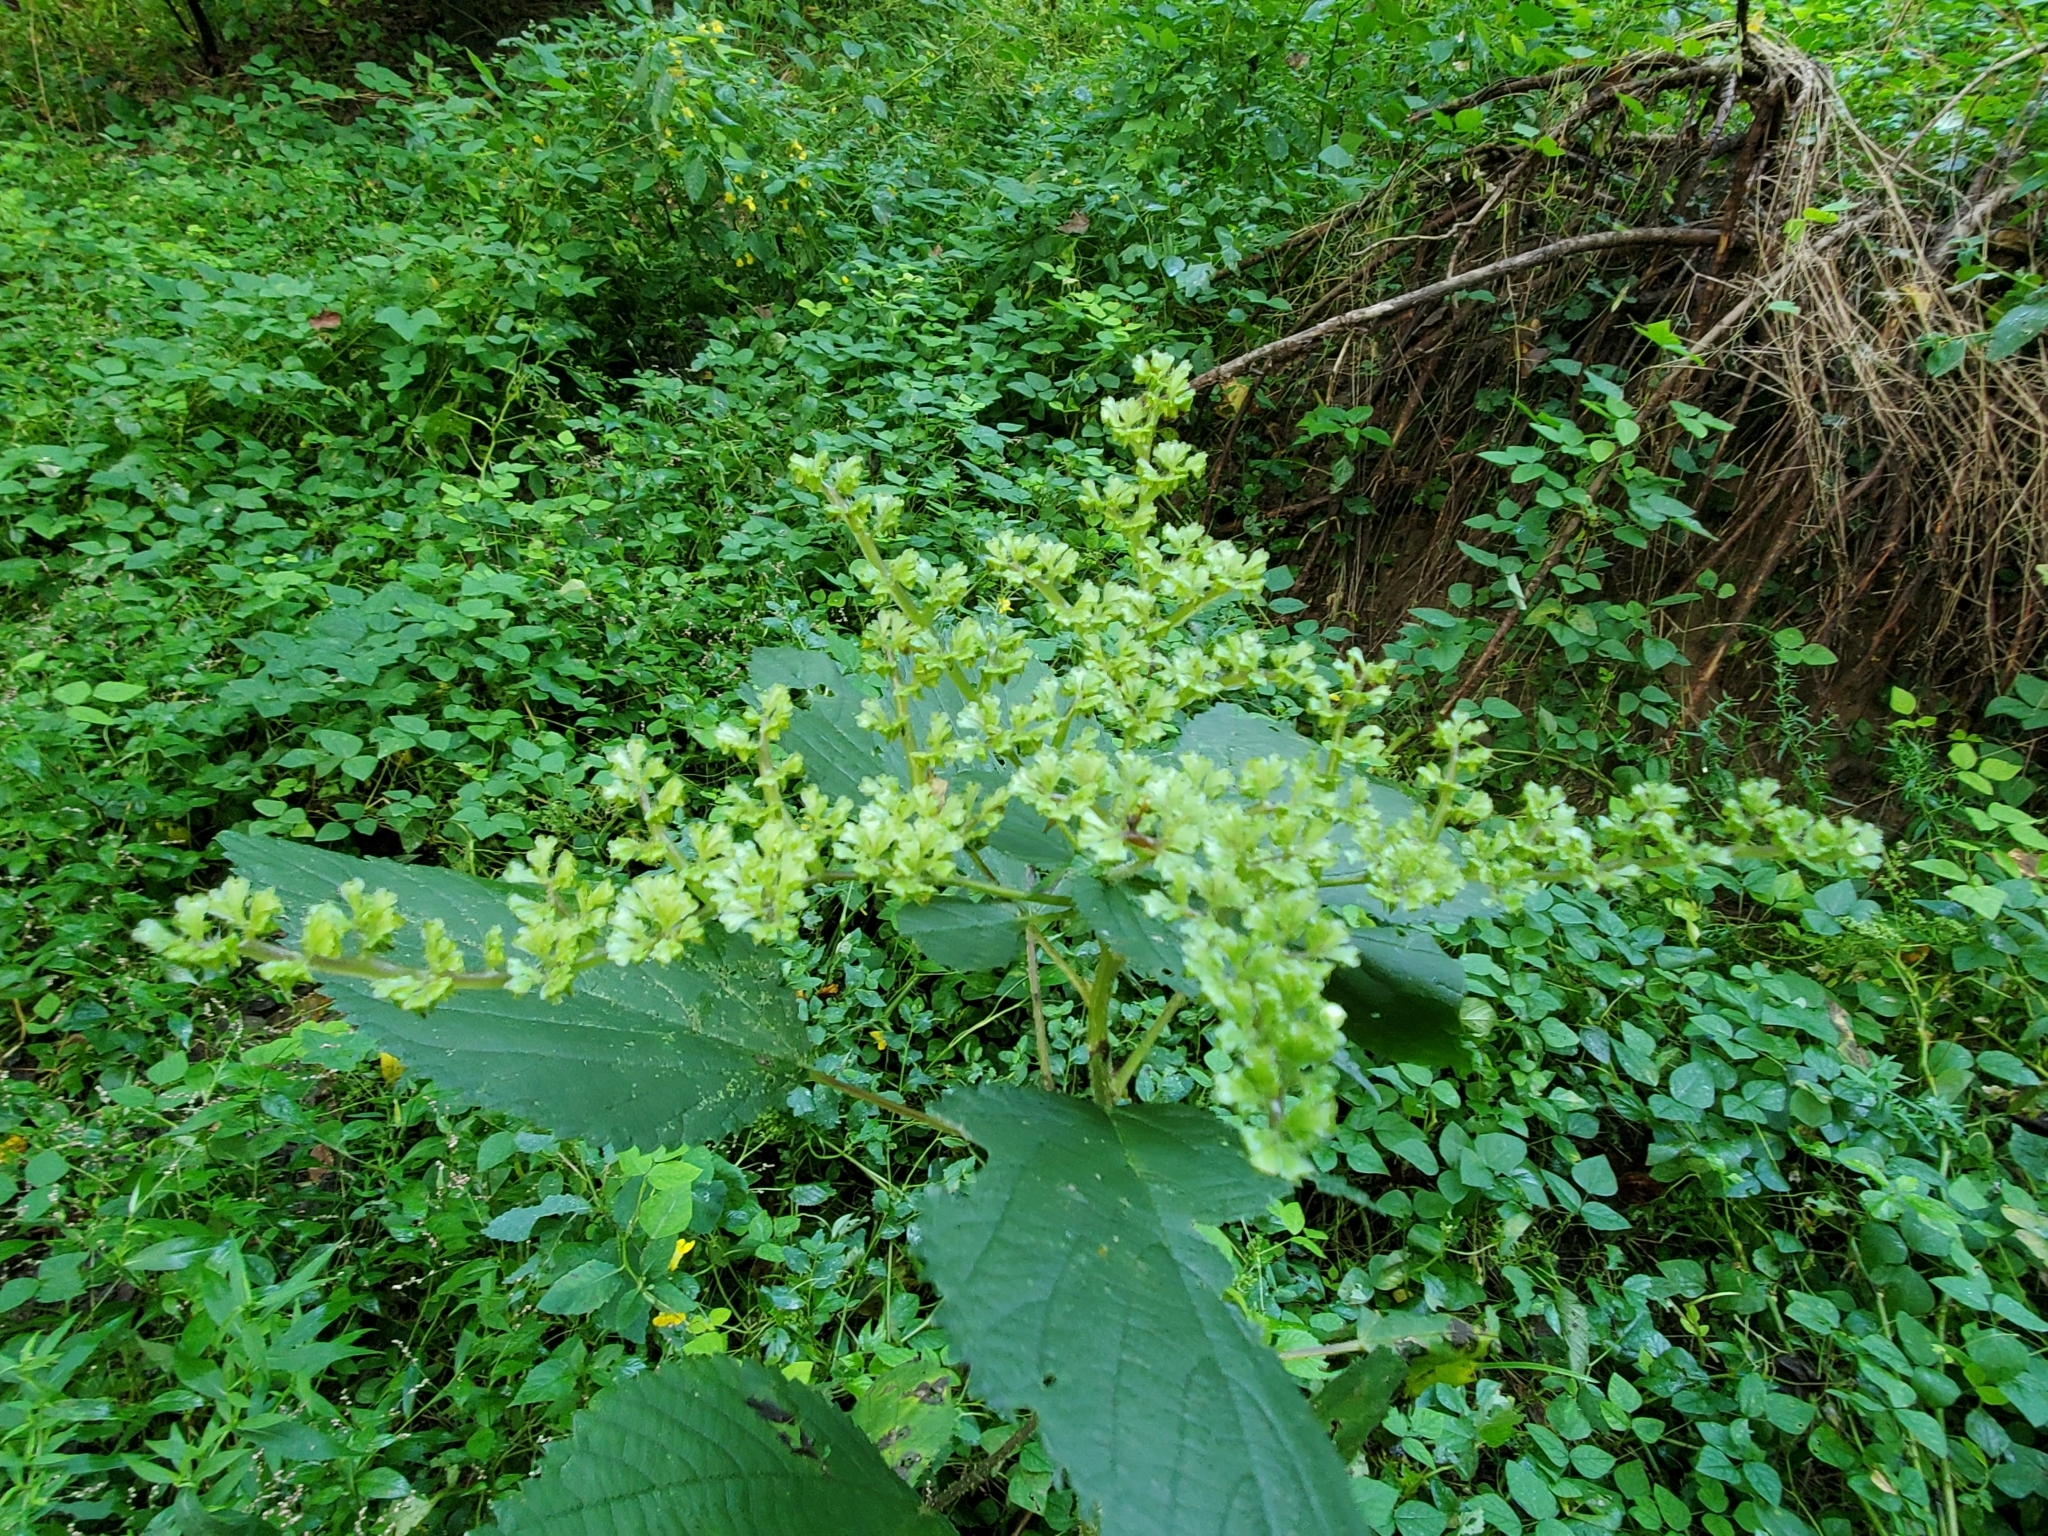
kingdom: Plantae
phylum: Tracheophyta
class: Magnoliopsida
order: Rosales
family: Urticaceae
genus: Laportea
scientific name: Laportea canadensis
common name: Canada nettle
